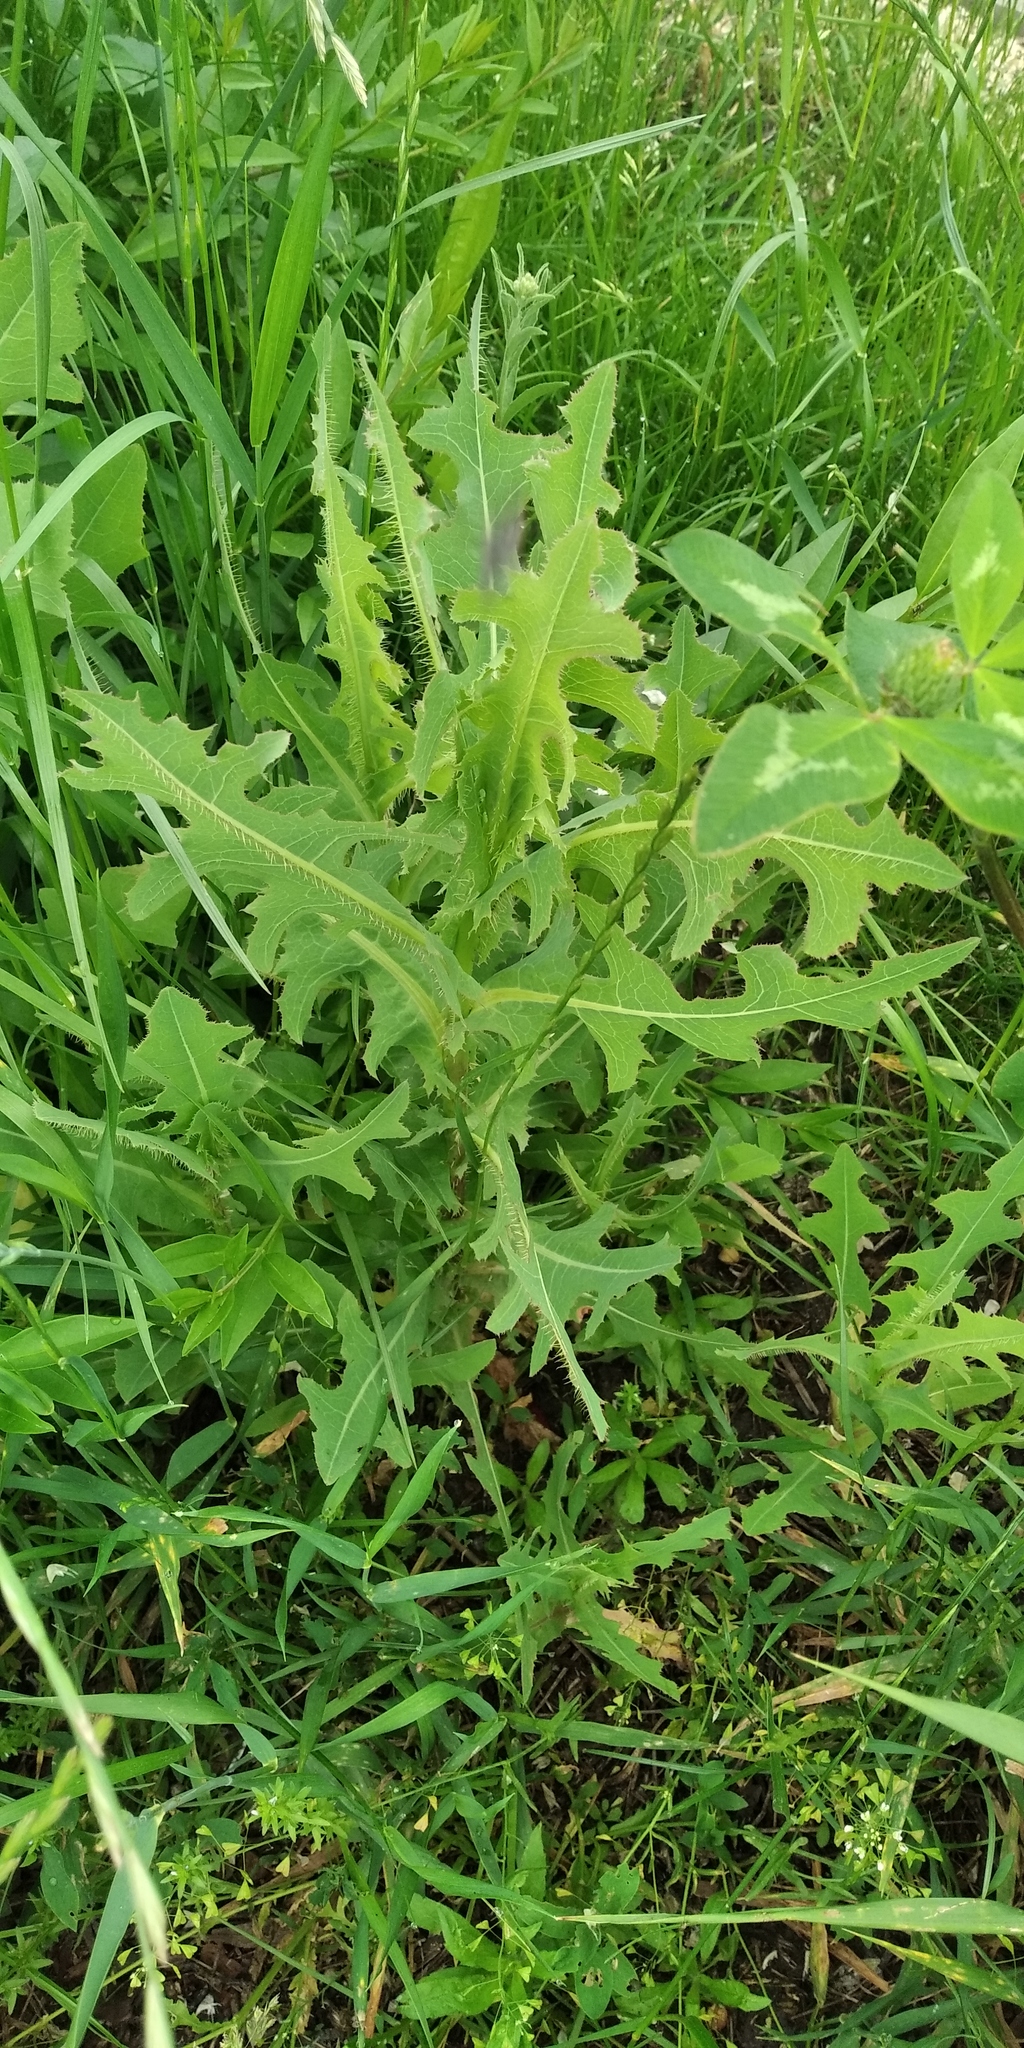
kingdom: Plantae
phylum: Tracheophyta
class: Magnoliopsida
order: Asterales
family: Asteraceae
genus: Lactuca
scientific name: Lactuca serriola
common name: Prickly lettuce
